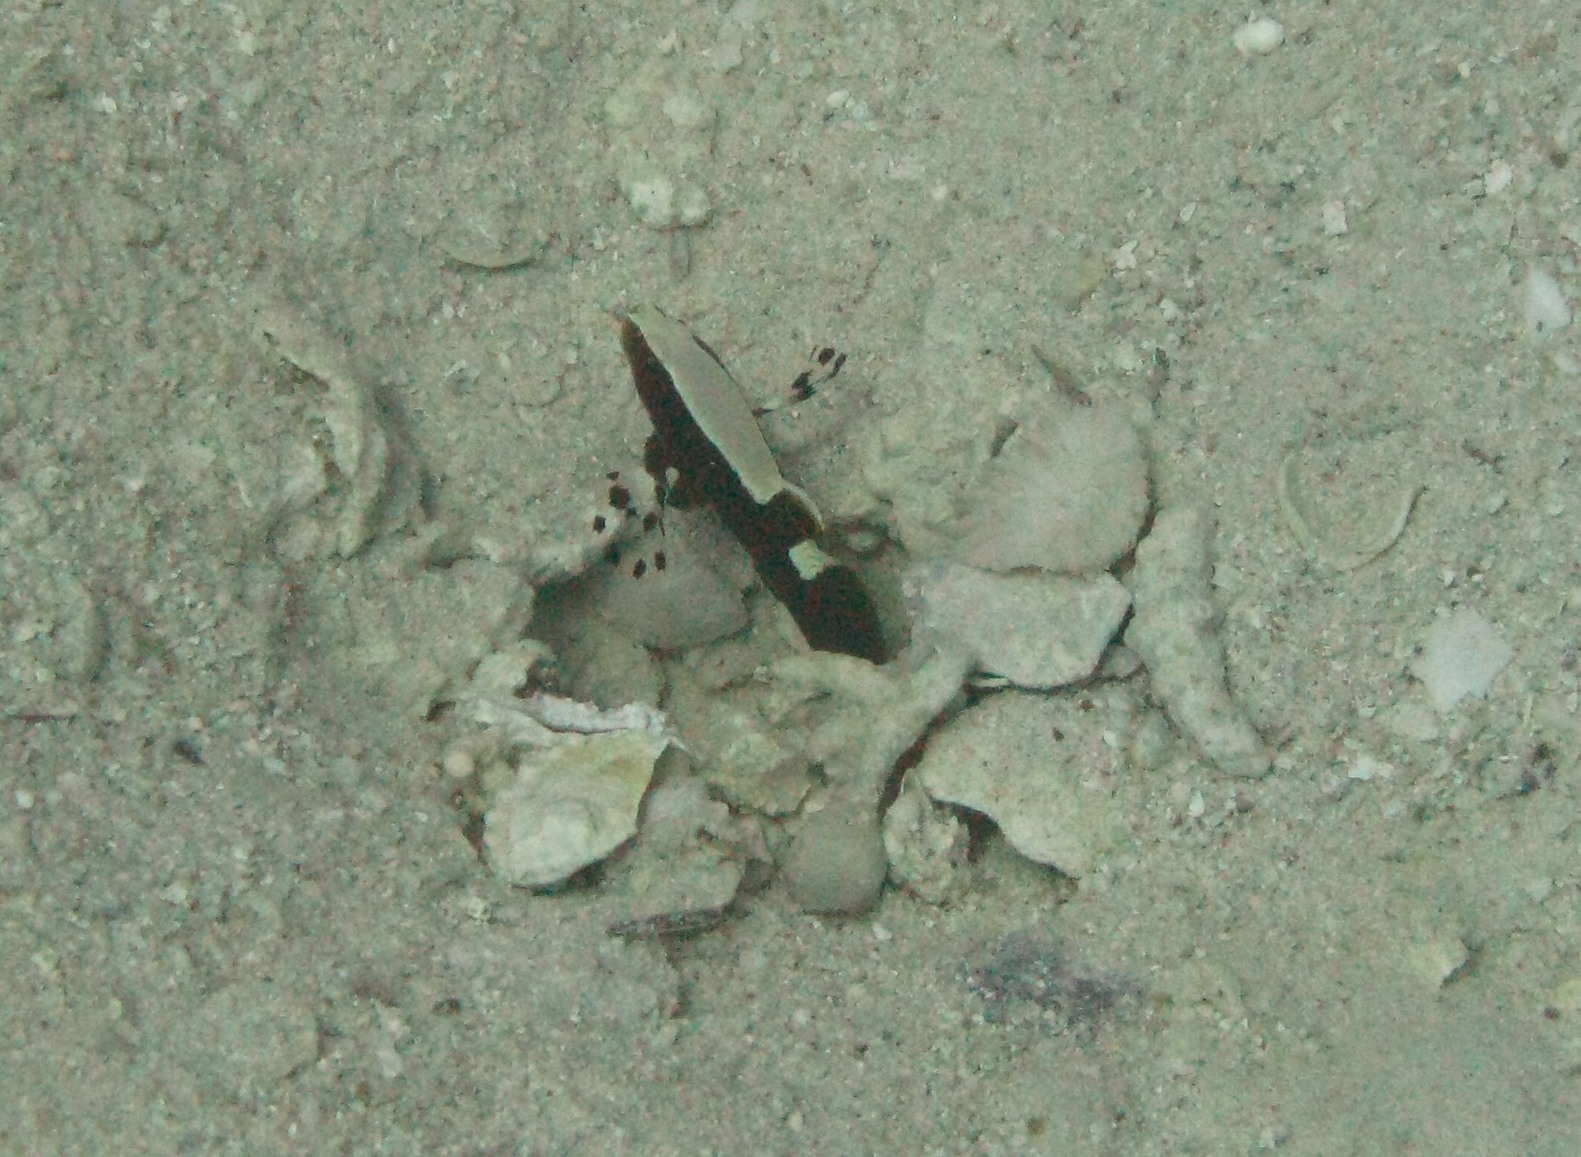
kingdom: Animalia
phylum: Chordata
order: Perciformes
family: Gobiidae
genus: Lotilia
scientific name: Lotilia graciliosa
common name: Whitecap goby
